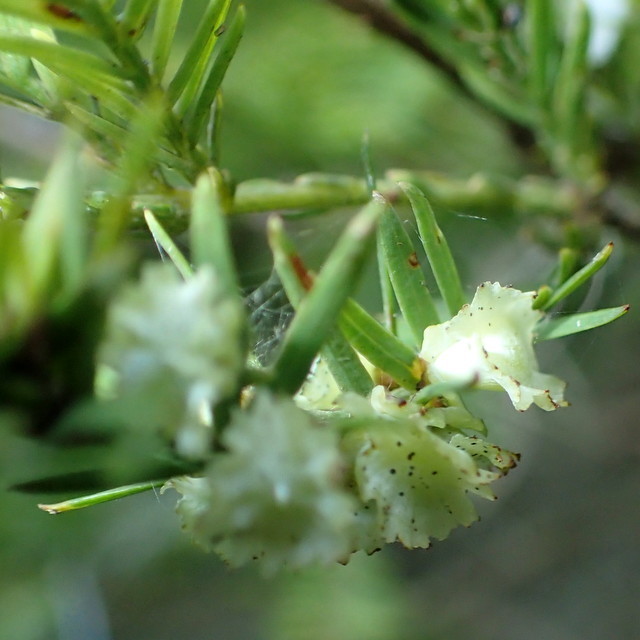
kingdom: Animalia
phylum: Arthropoda
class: Insecta
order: Diptera
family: Cecidomyiidae
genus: Taxodiomyia
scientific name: Taxodiomyia cupressi
